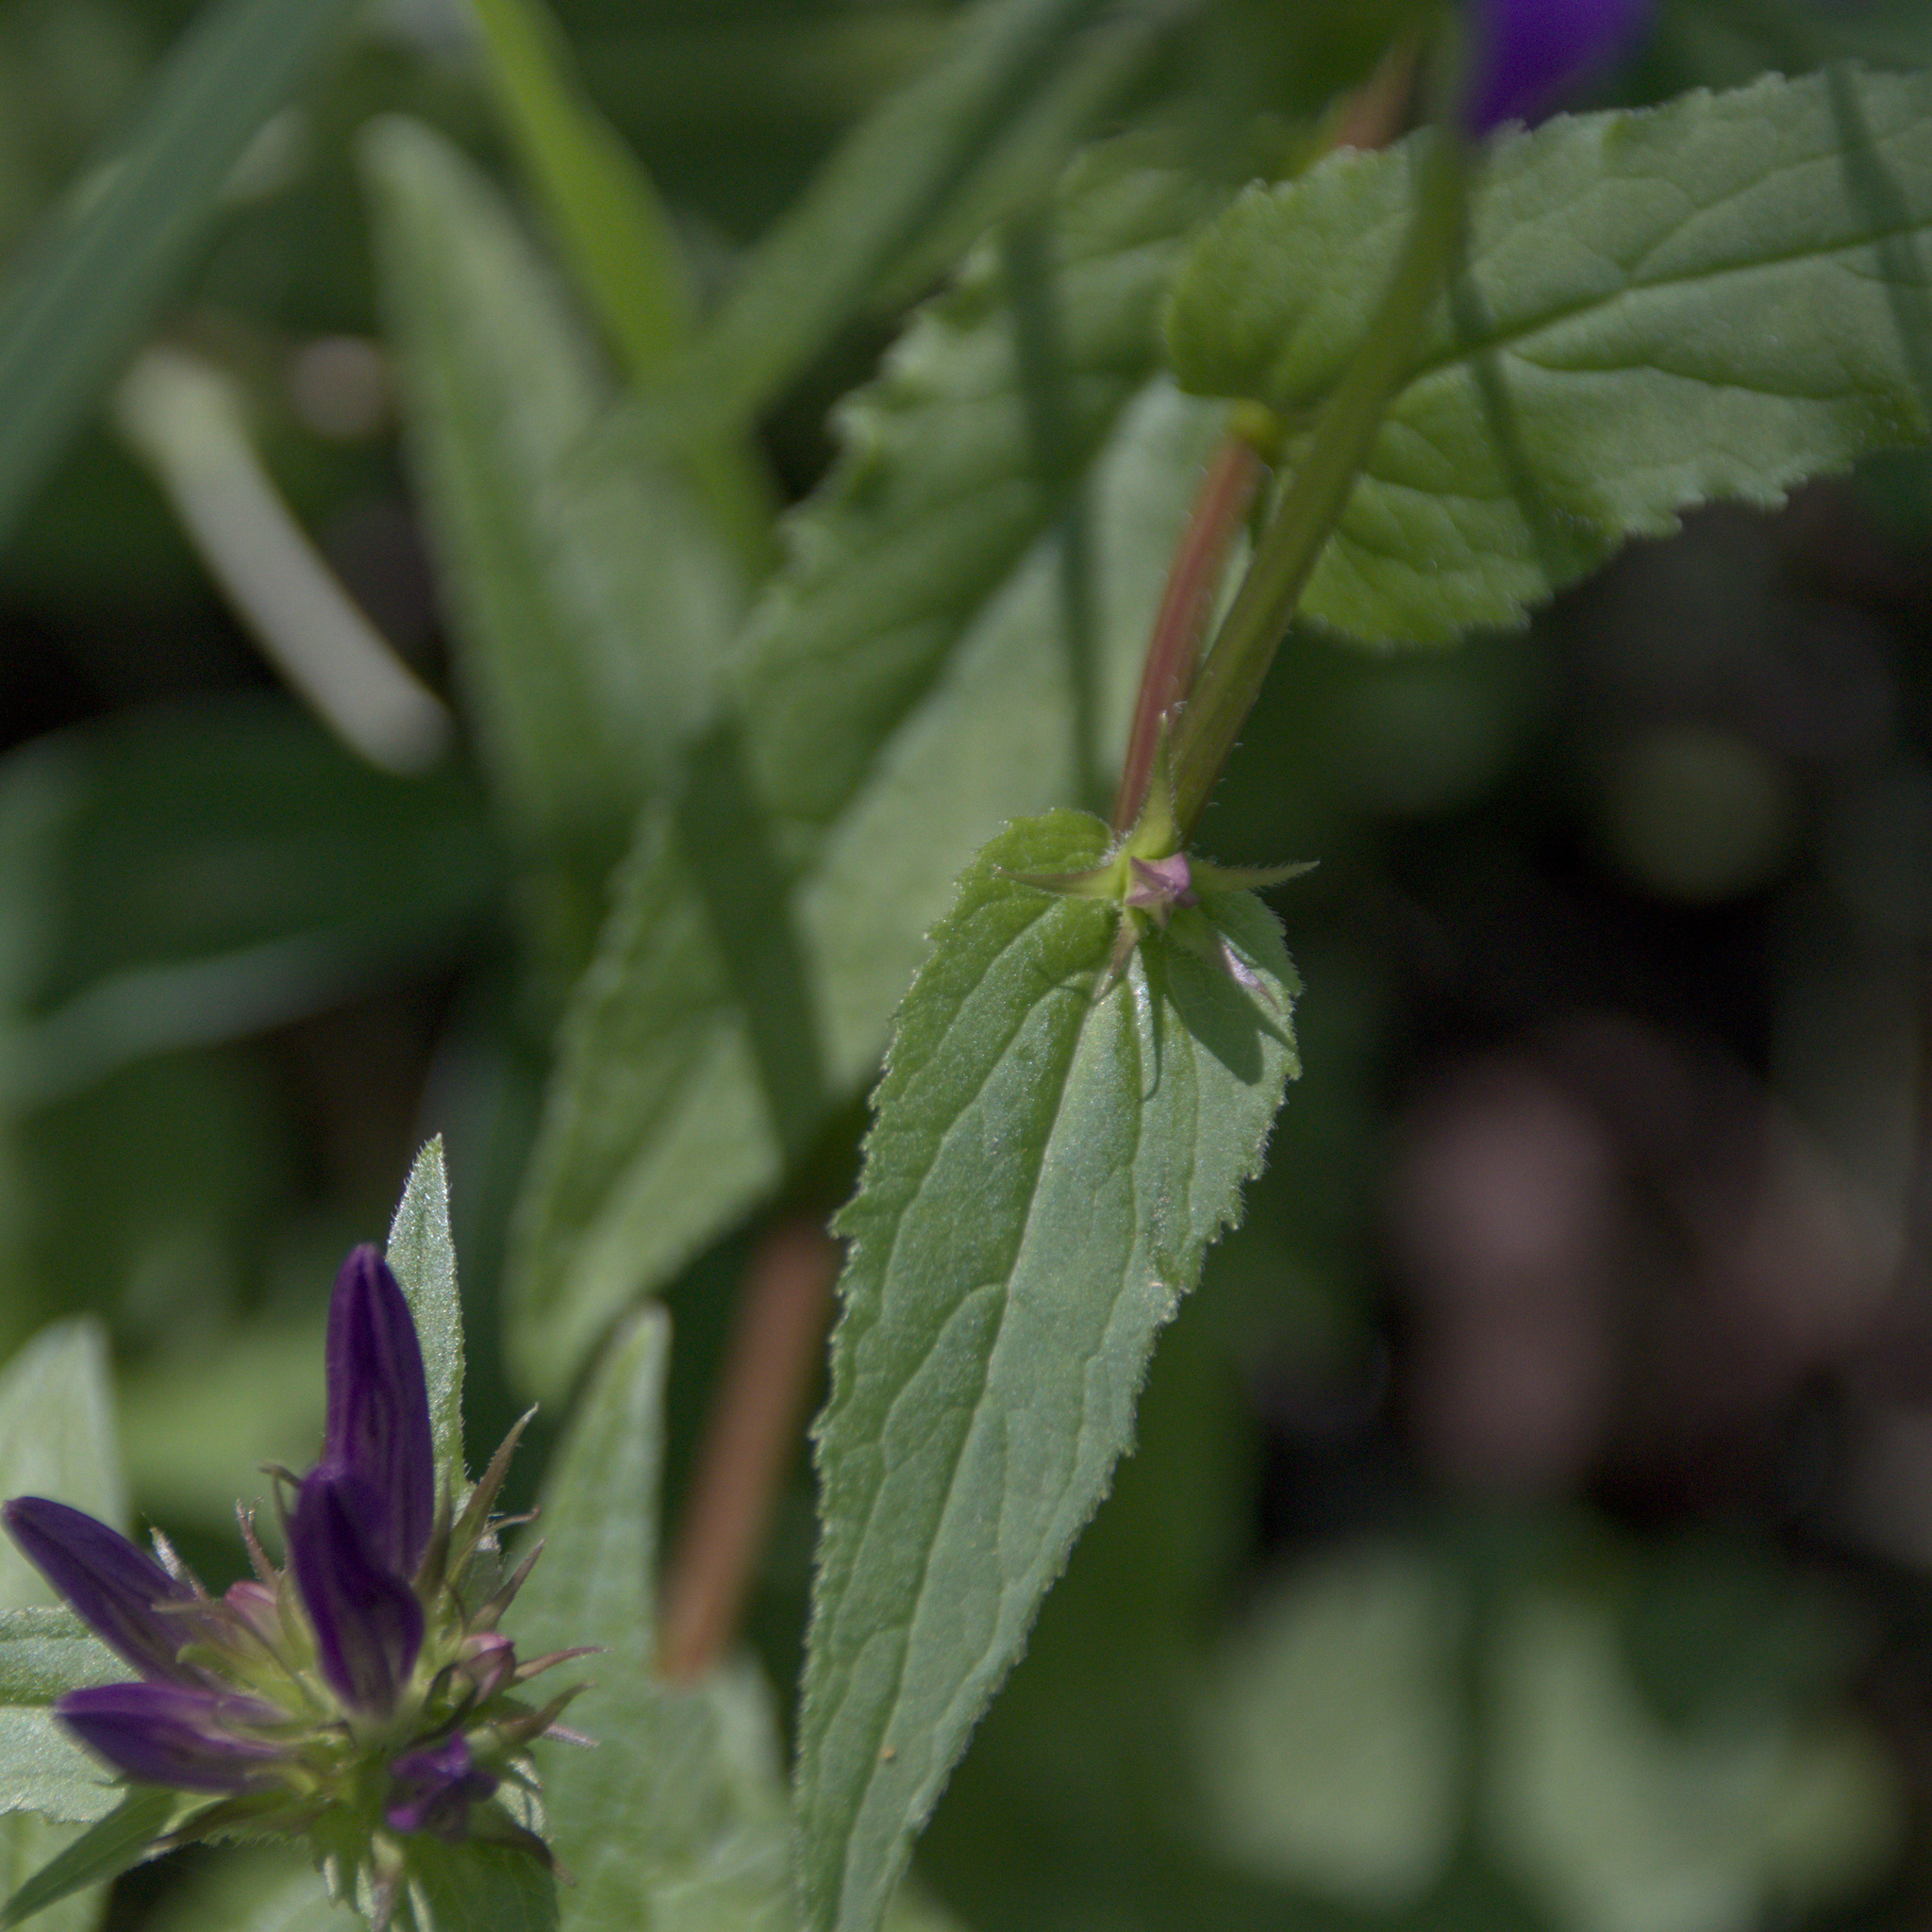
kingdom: Plantae
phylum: Tracheophyta
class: Magnoliopsida
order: Asterales
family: Campanulaceae
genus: Campanula
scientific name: Campanula glomerata
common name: Clustered bellflower
